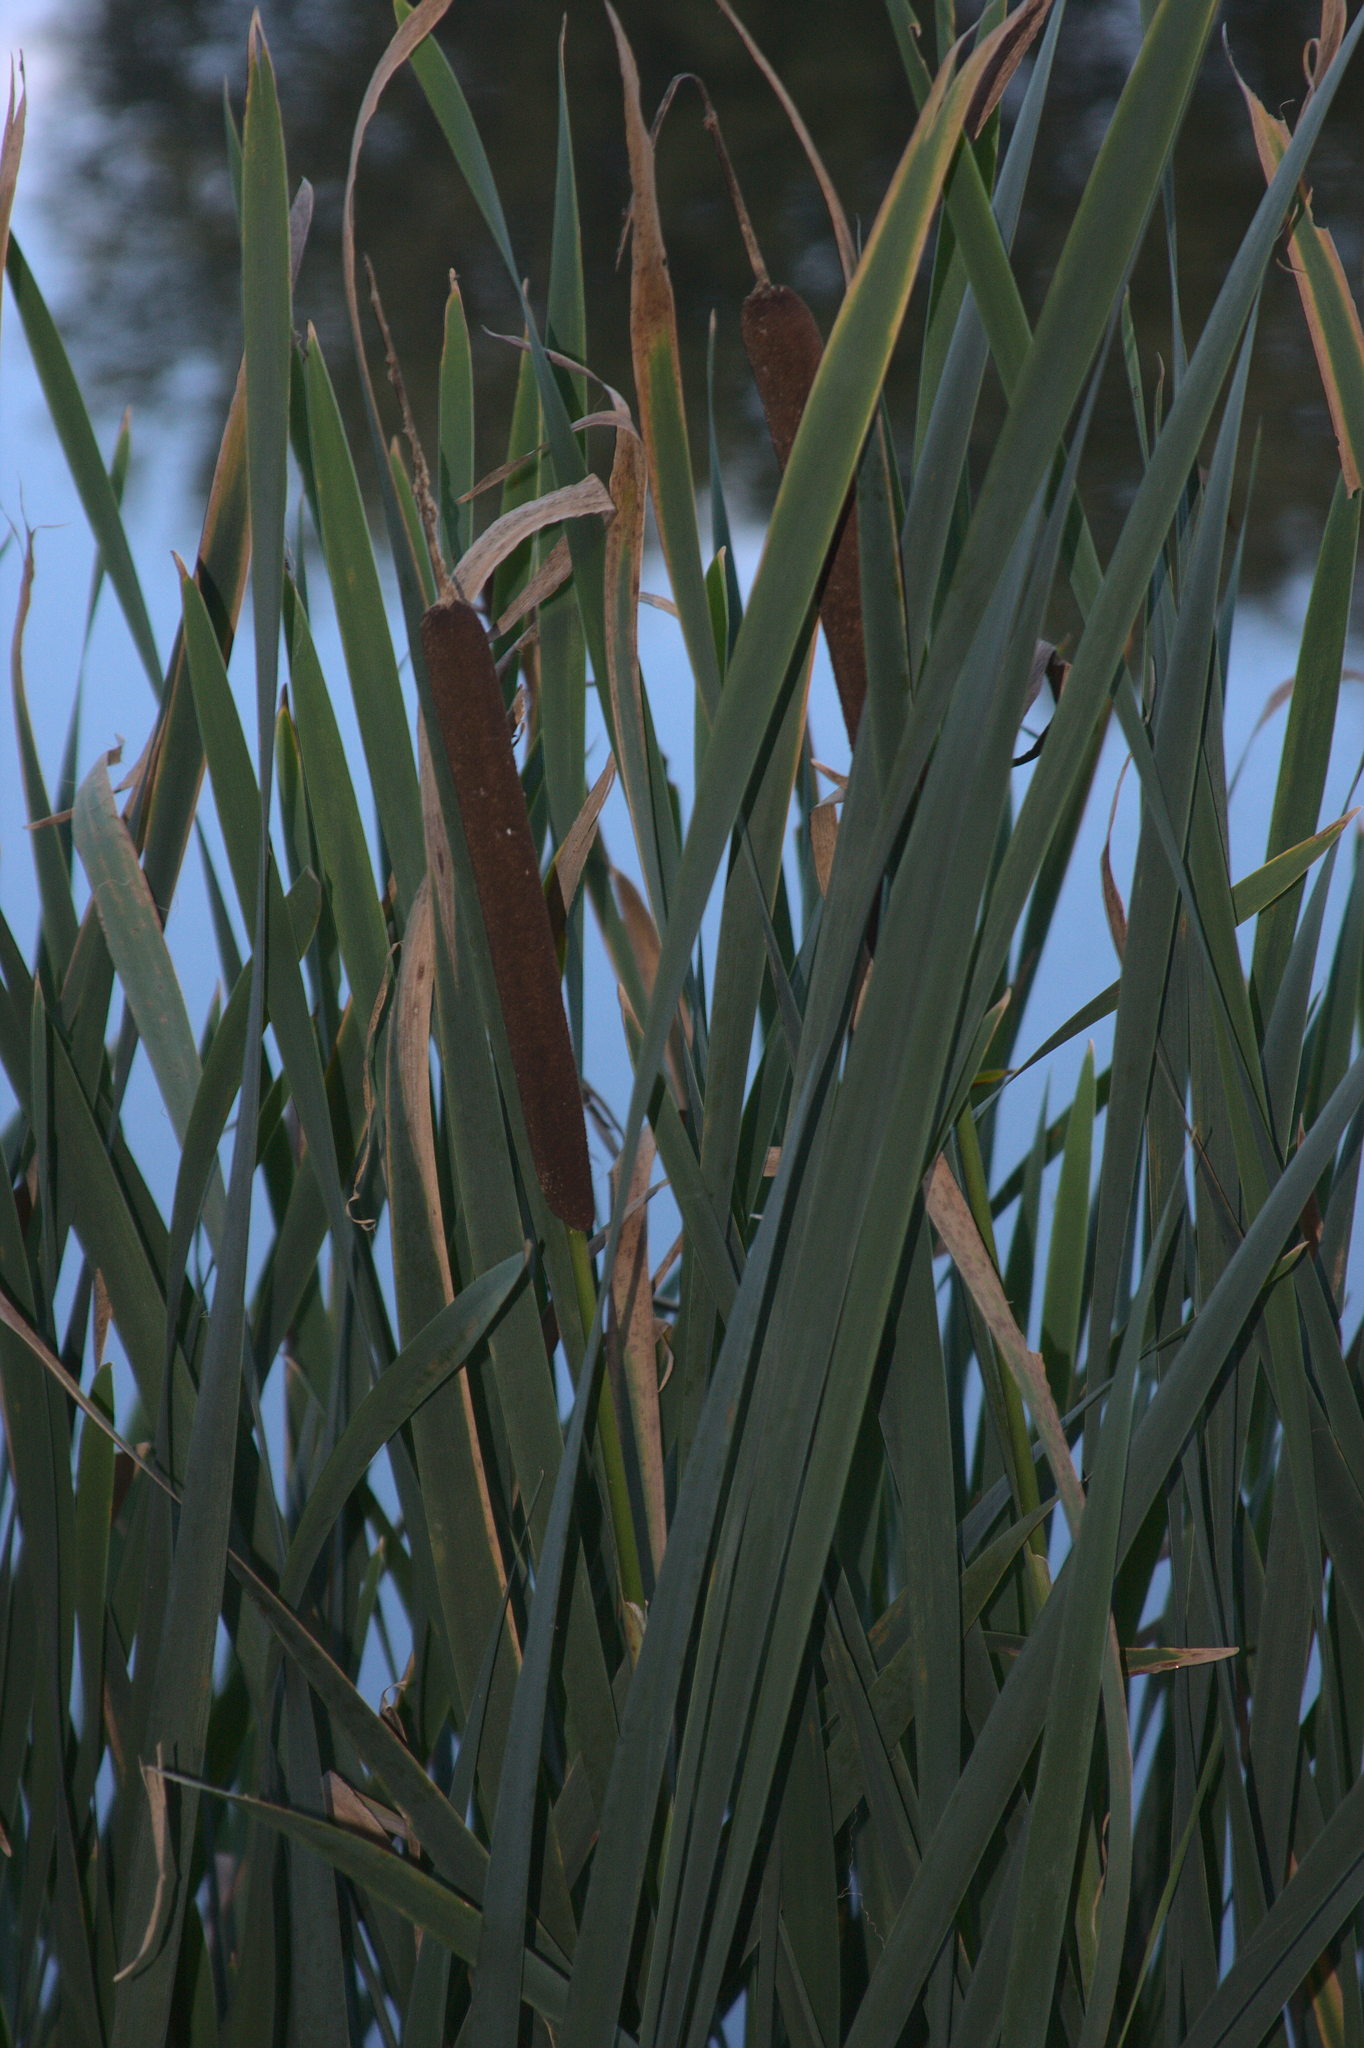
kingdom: Plantae
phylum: Tracheophyta
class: Liliopsida
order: Poales
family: Typhaceae
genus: Typha
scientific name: Typha latifolia
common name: Broadleaf cattail
